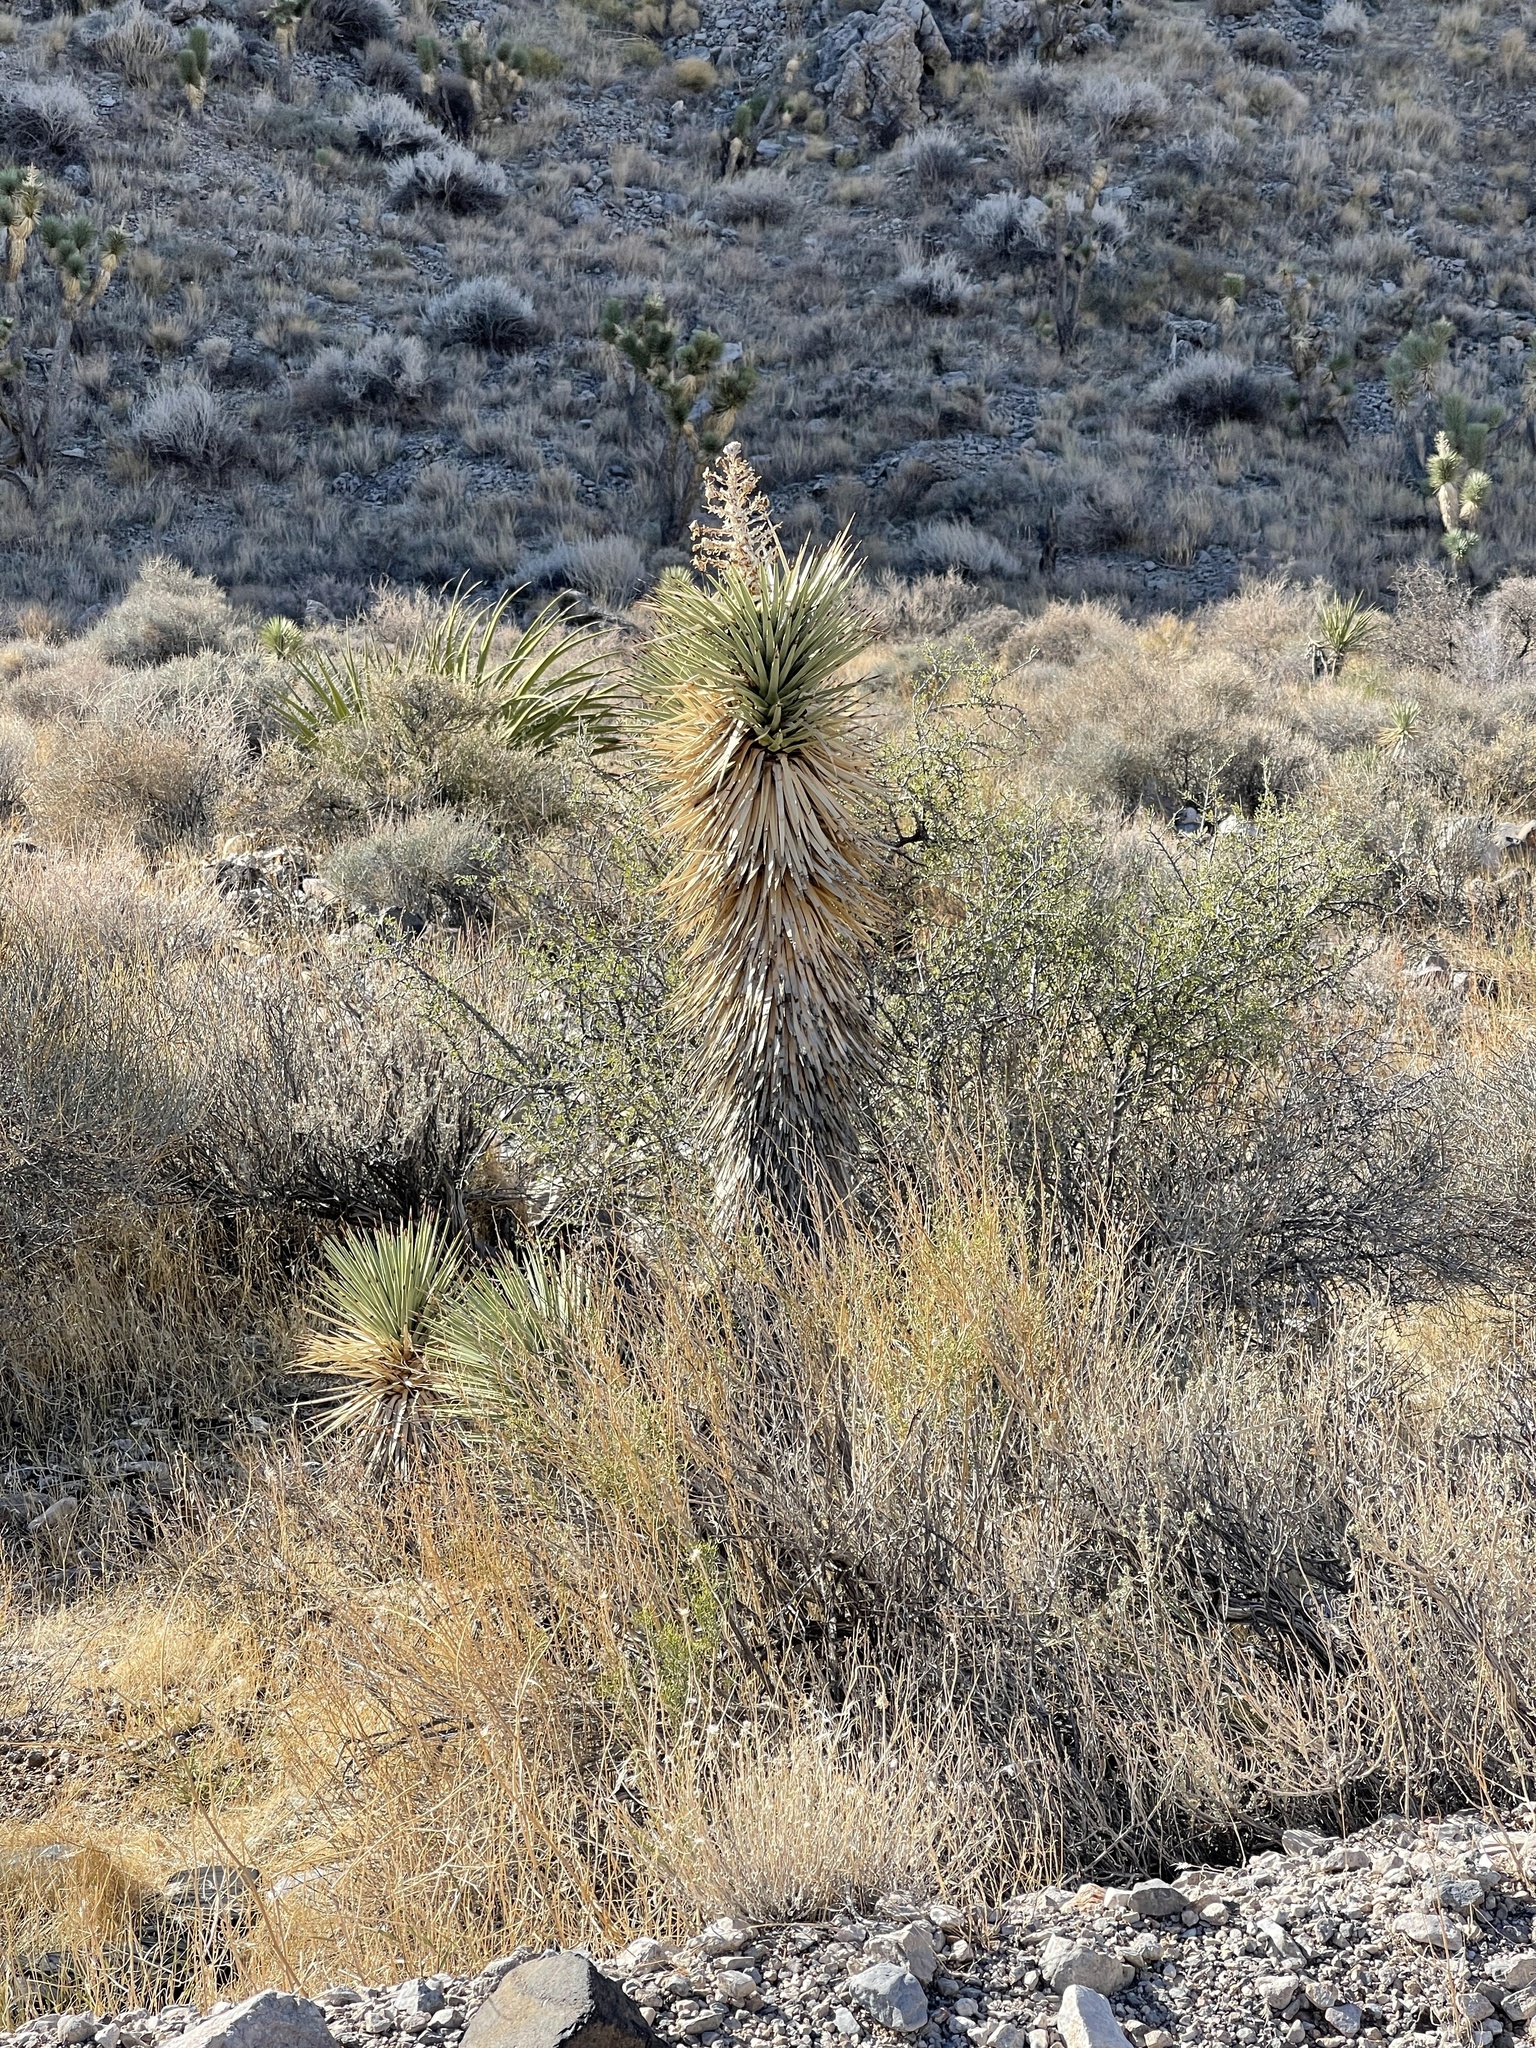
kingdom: Plantae
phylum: Tracheophyta
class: Liliopsida
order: Asparagales
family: Asparagaceae
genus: Yucca
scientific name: Yucca brevifolia
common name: Joshua tree
